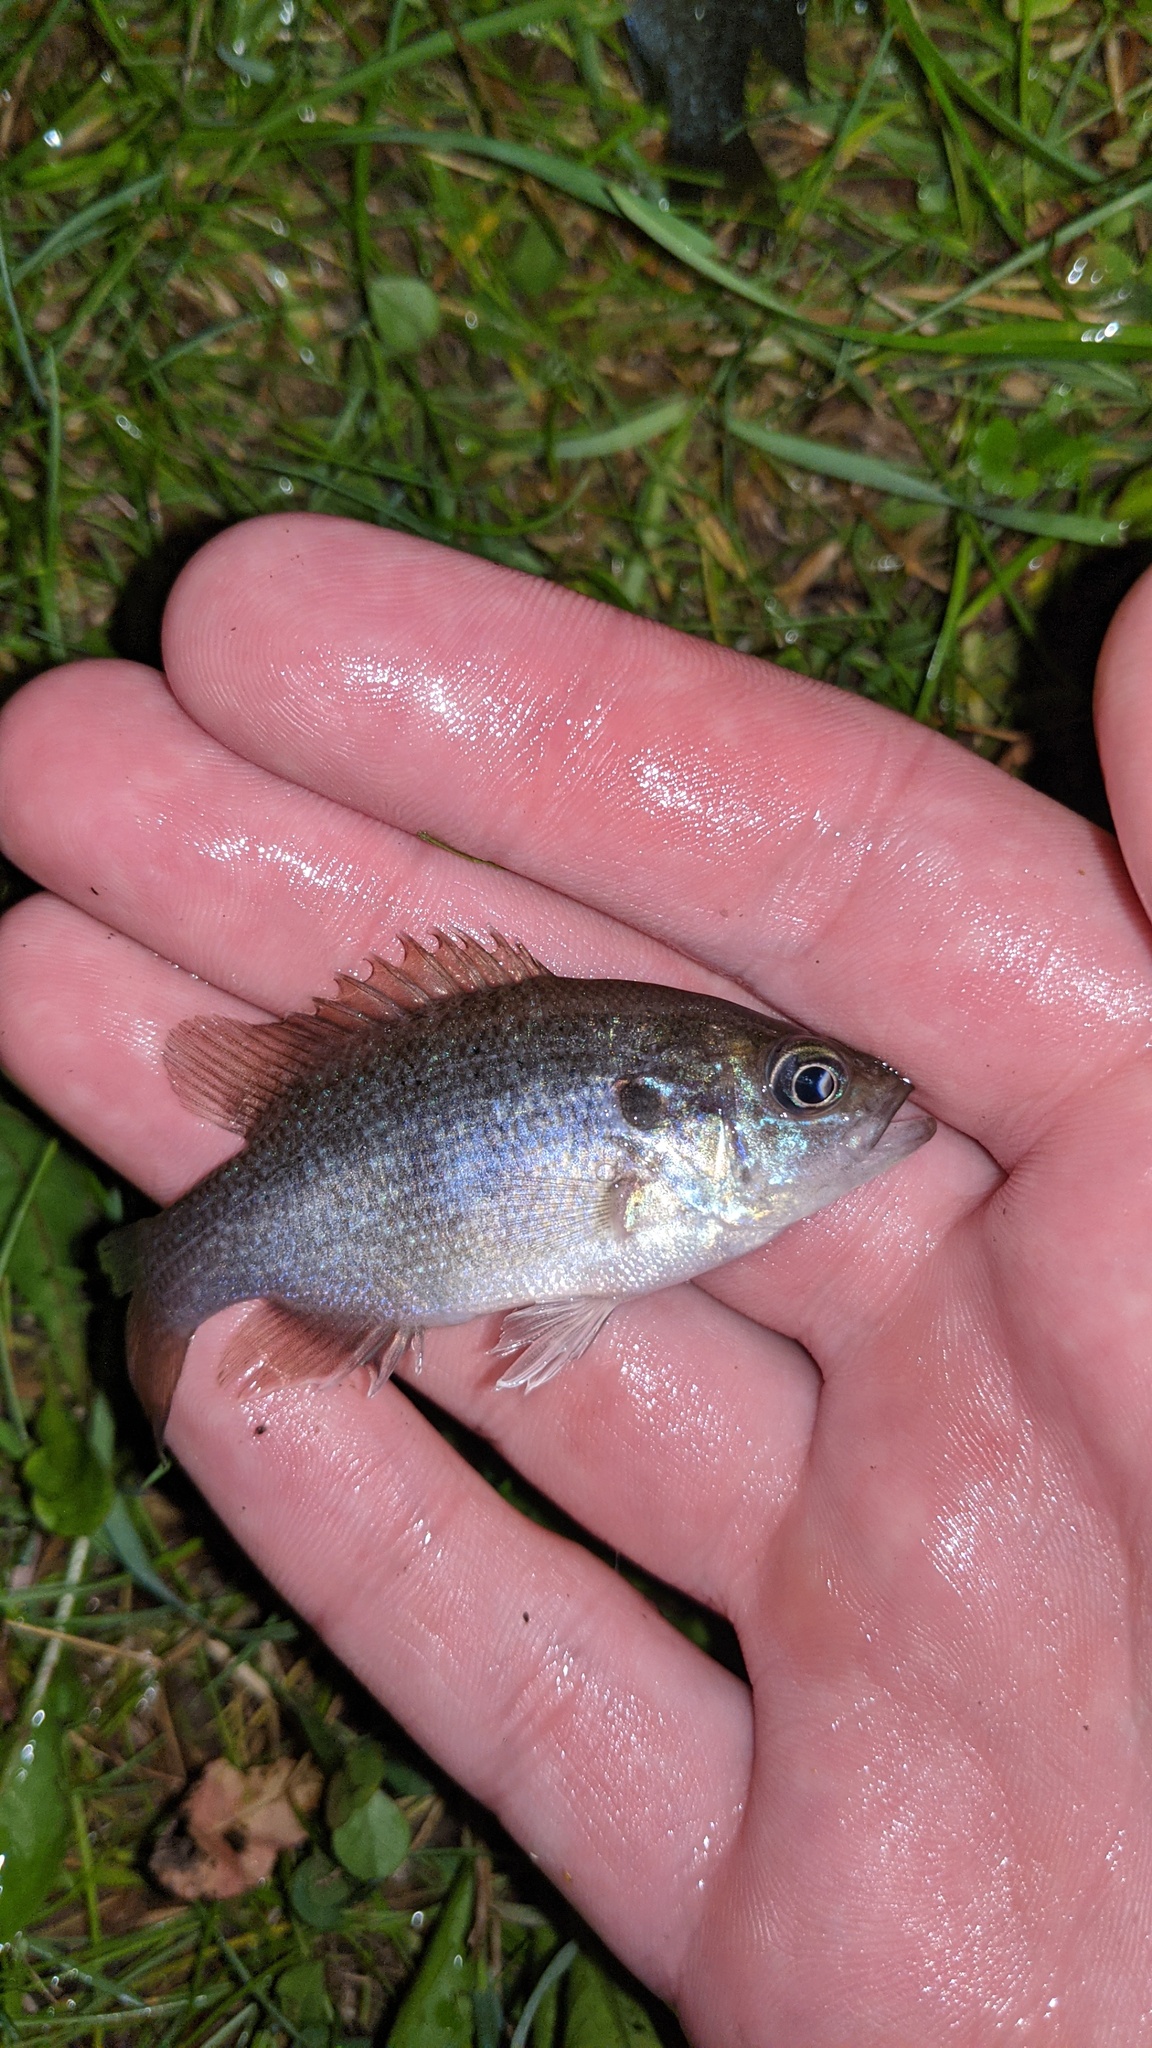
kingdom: Animalia
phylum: Chordata
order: Perciformes
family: Centrarchidae
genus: Lepomis
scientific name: Lepomis cyanellus
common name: Green sunfish
